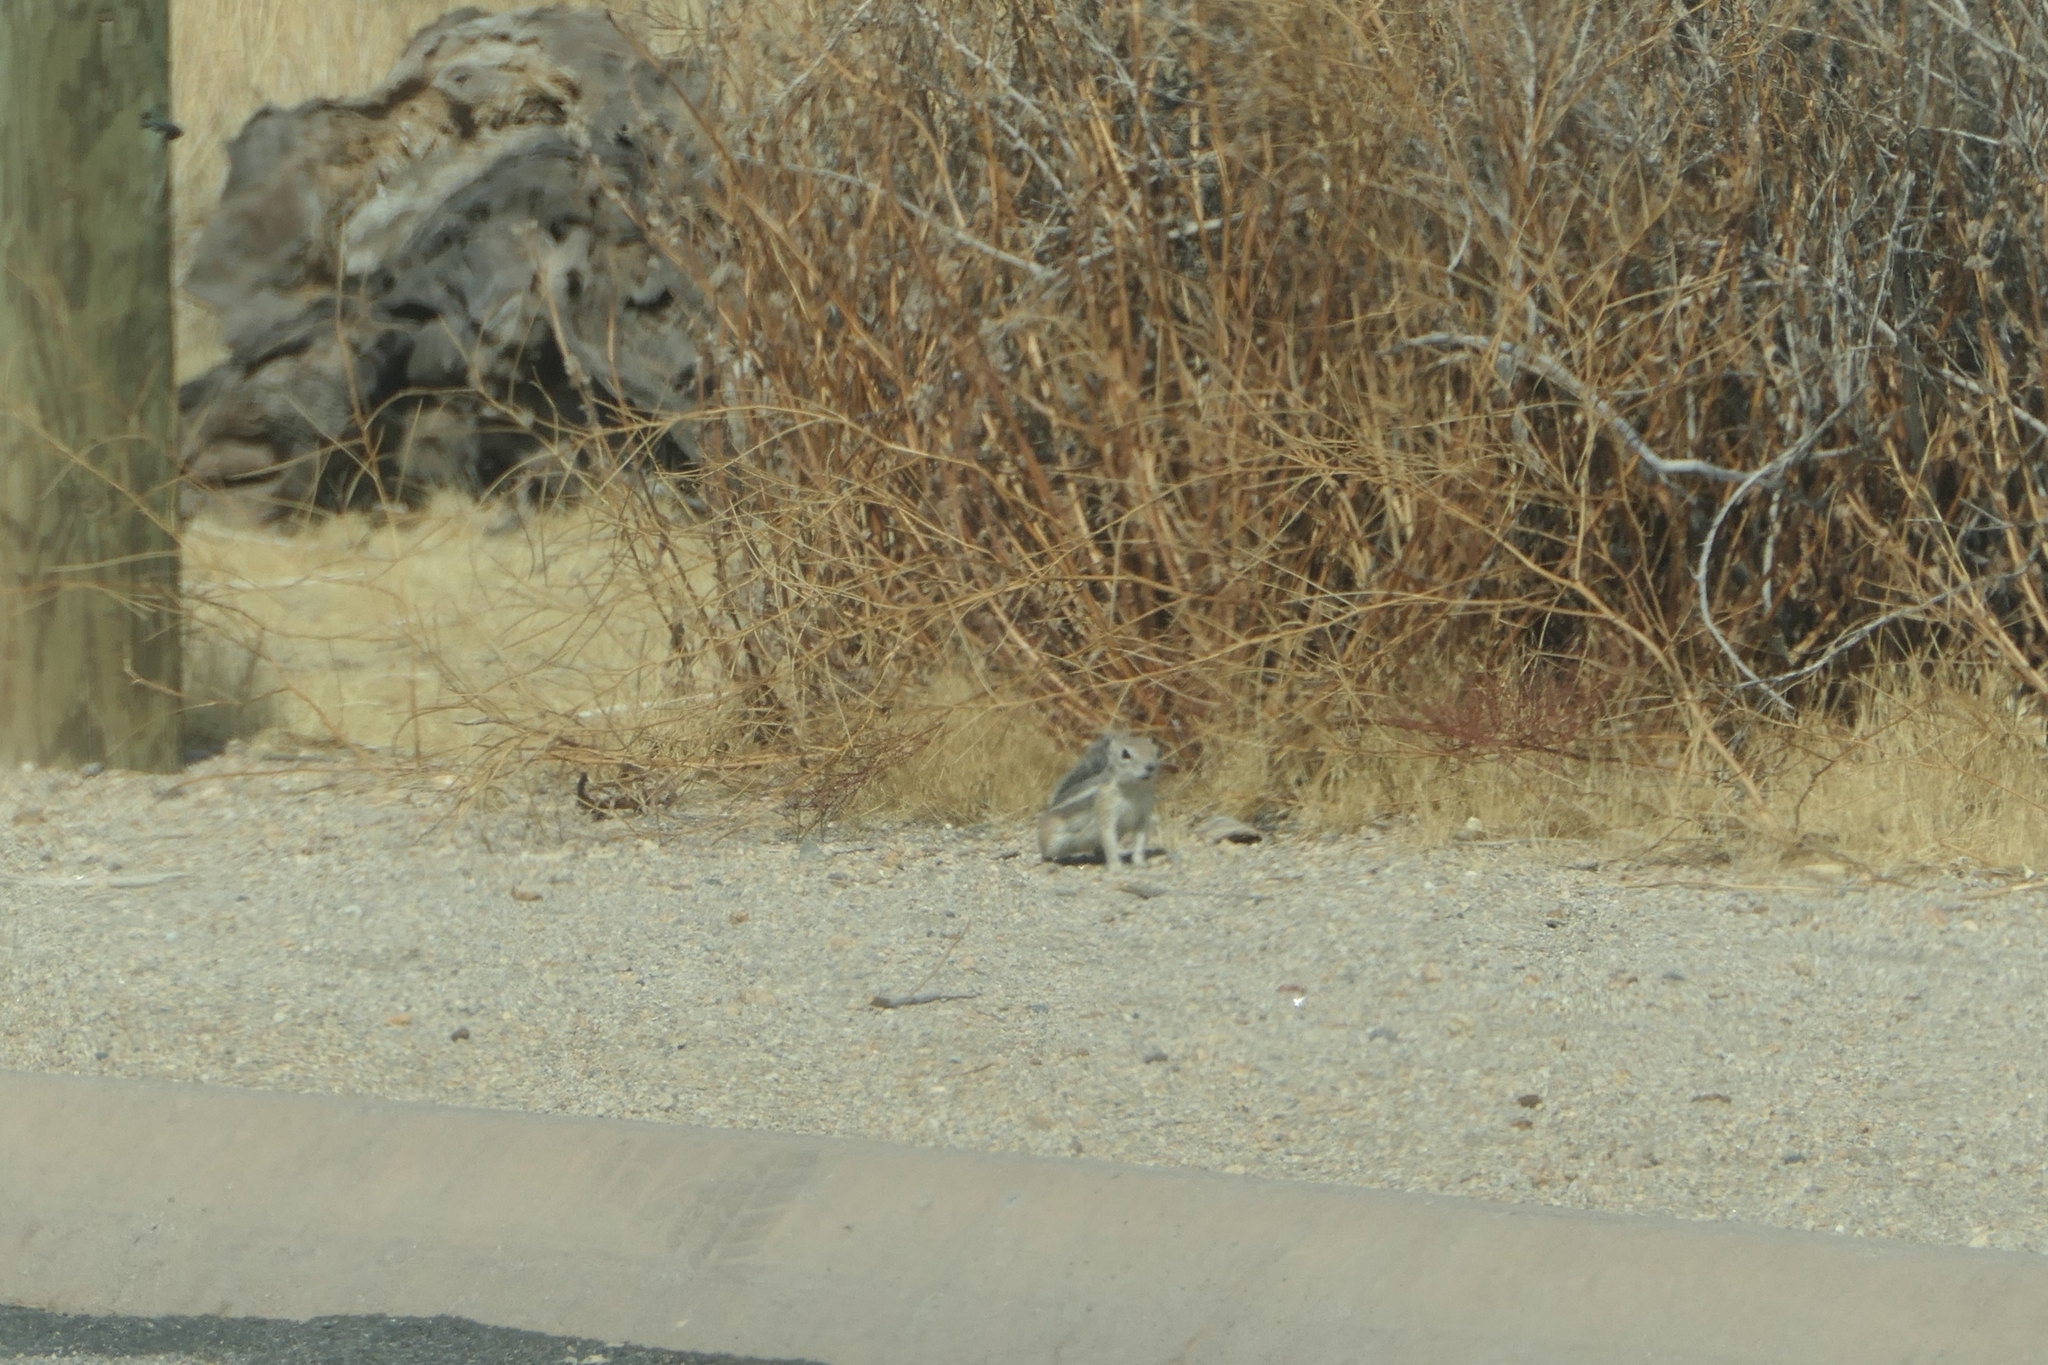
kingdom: Animalia
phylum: Chordata
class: Mammalia
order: Rodentia
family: Sciuridae
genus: Ammospermophilus
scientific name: Ammospermophilus leucurus
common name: White-tailed antelope squirrel
